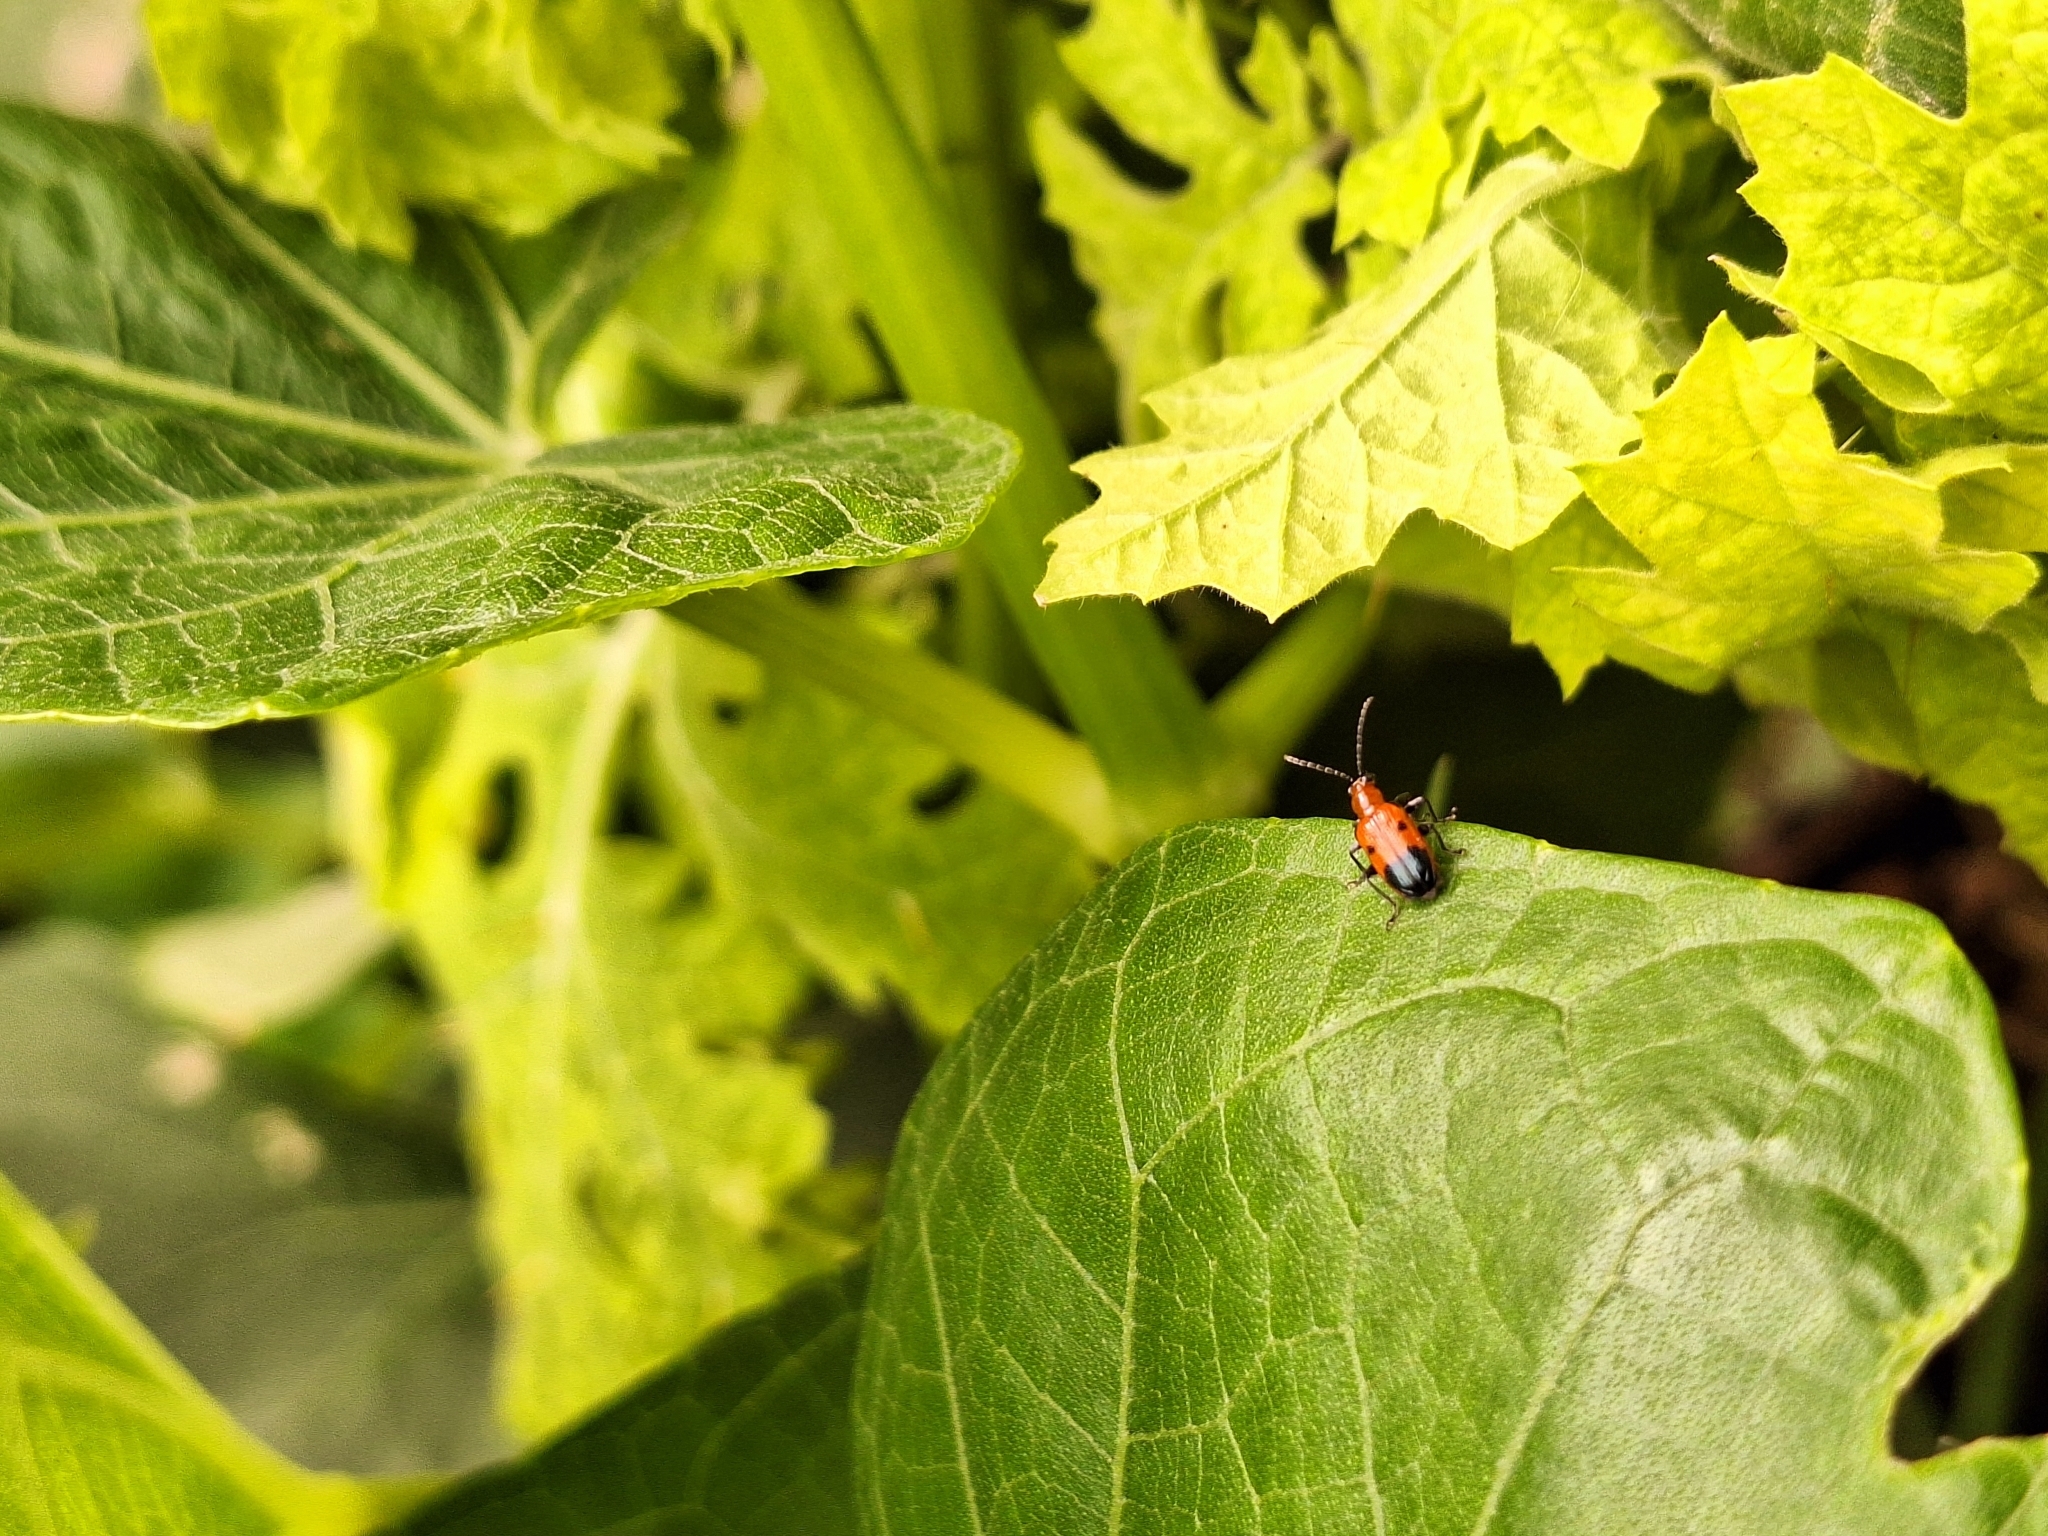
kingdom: Animalia
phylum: Arthropoda
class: Insecta
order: Coleoptera
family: Chrysomelidae
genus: Neolema
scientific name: Neolema dorsalis
